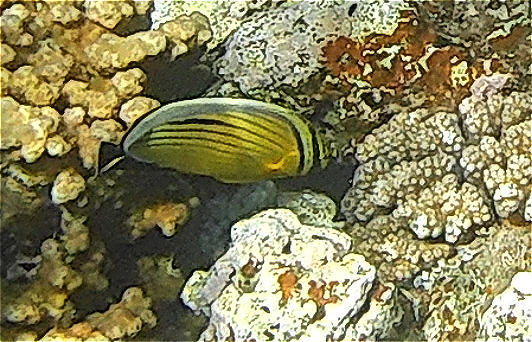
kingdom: Animalia
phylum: Chordata
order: Perciformes
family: Chaetodontidae
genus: Chaetodon
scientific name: Chaetodon austriacus
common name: Exquisite butterflyfish
